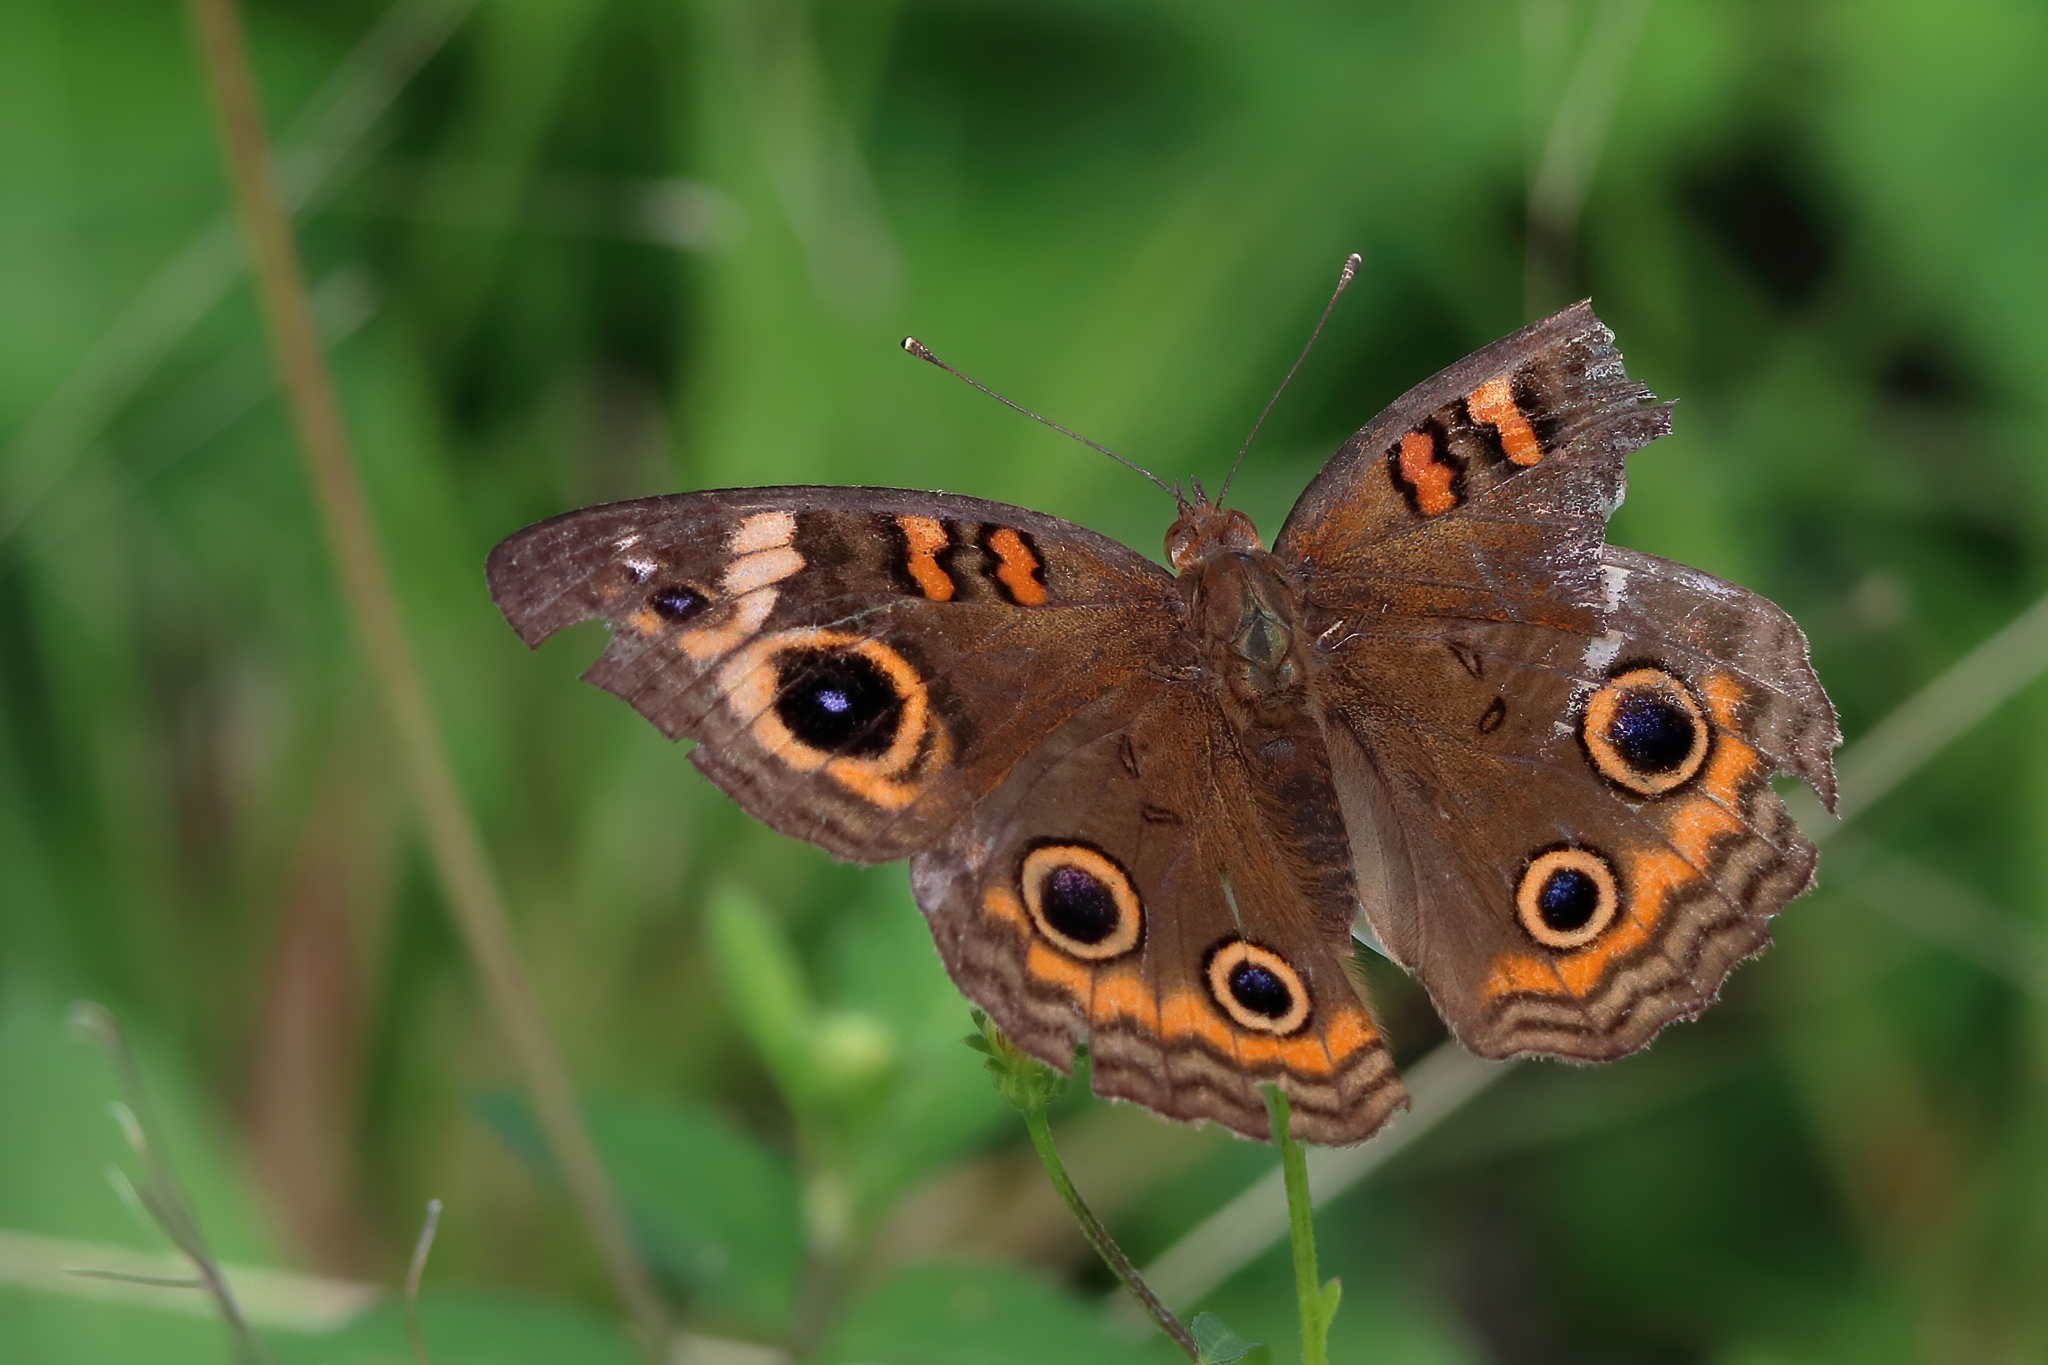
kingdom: Animalia
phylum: Arthropoda
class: Insecta
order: Lepidoptera
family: Nymphalidae
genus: Junonia
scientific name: Junonia neildi
